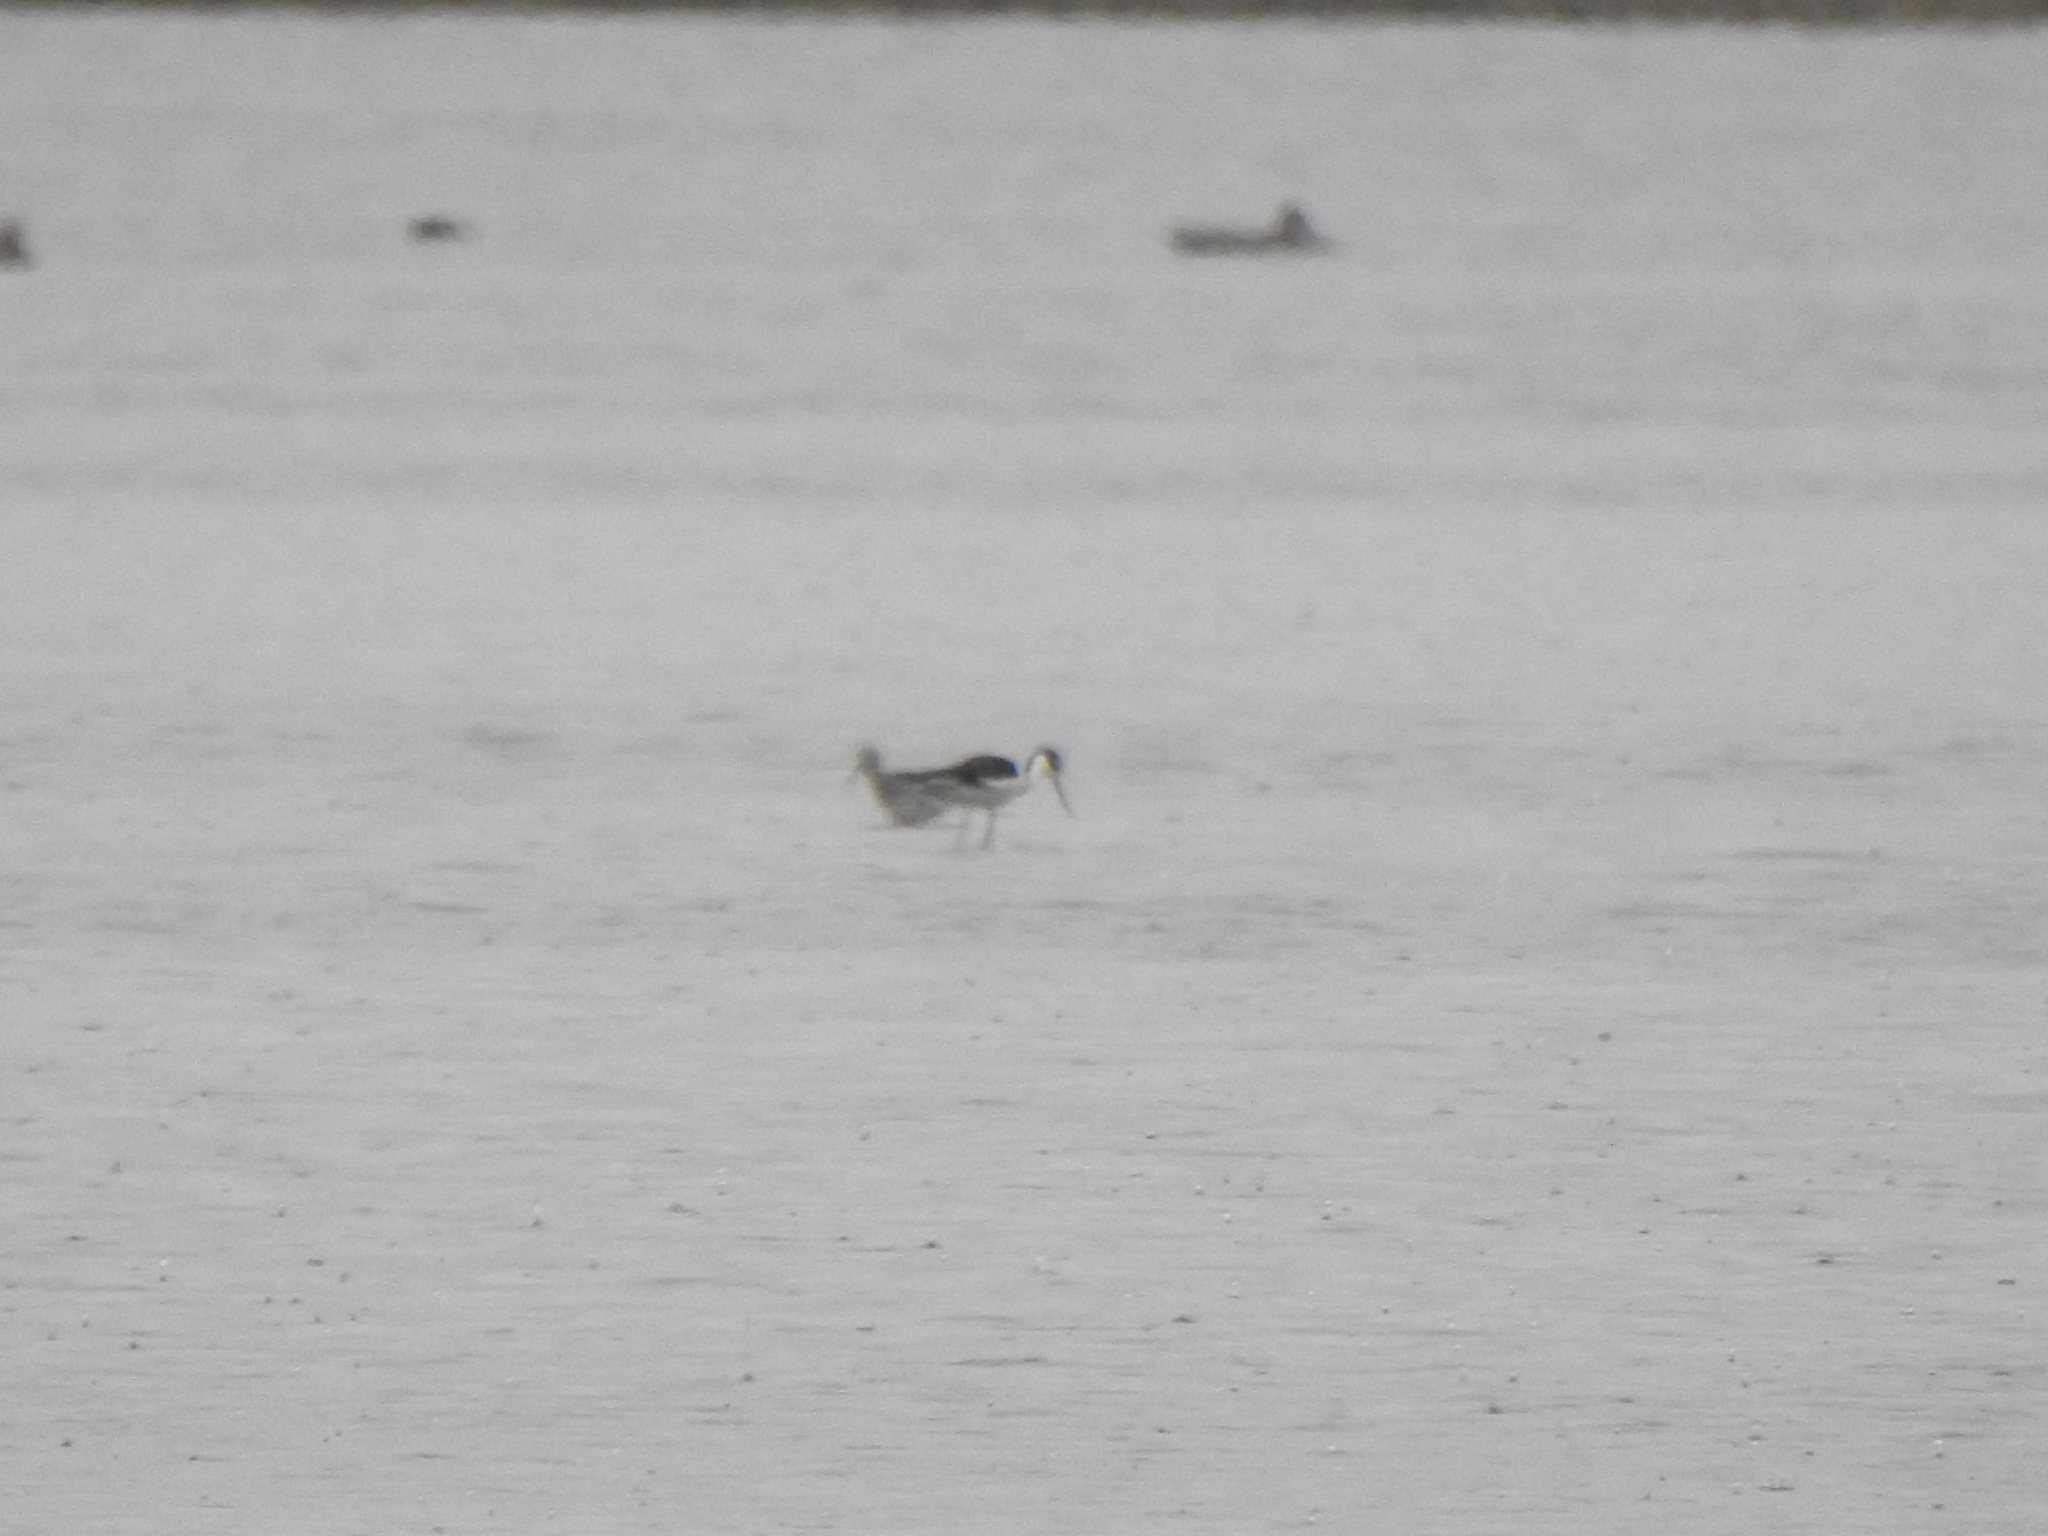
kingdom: Animalia
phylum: Chordata
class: Aves
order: Charadriiformes
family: Recurvirostridae
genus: Himantopus
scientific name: Himantopus mexicanus
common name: Black-necked stilt
